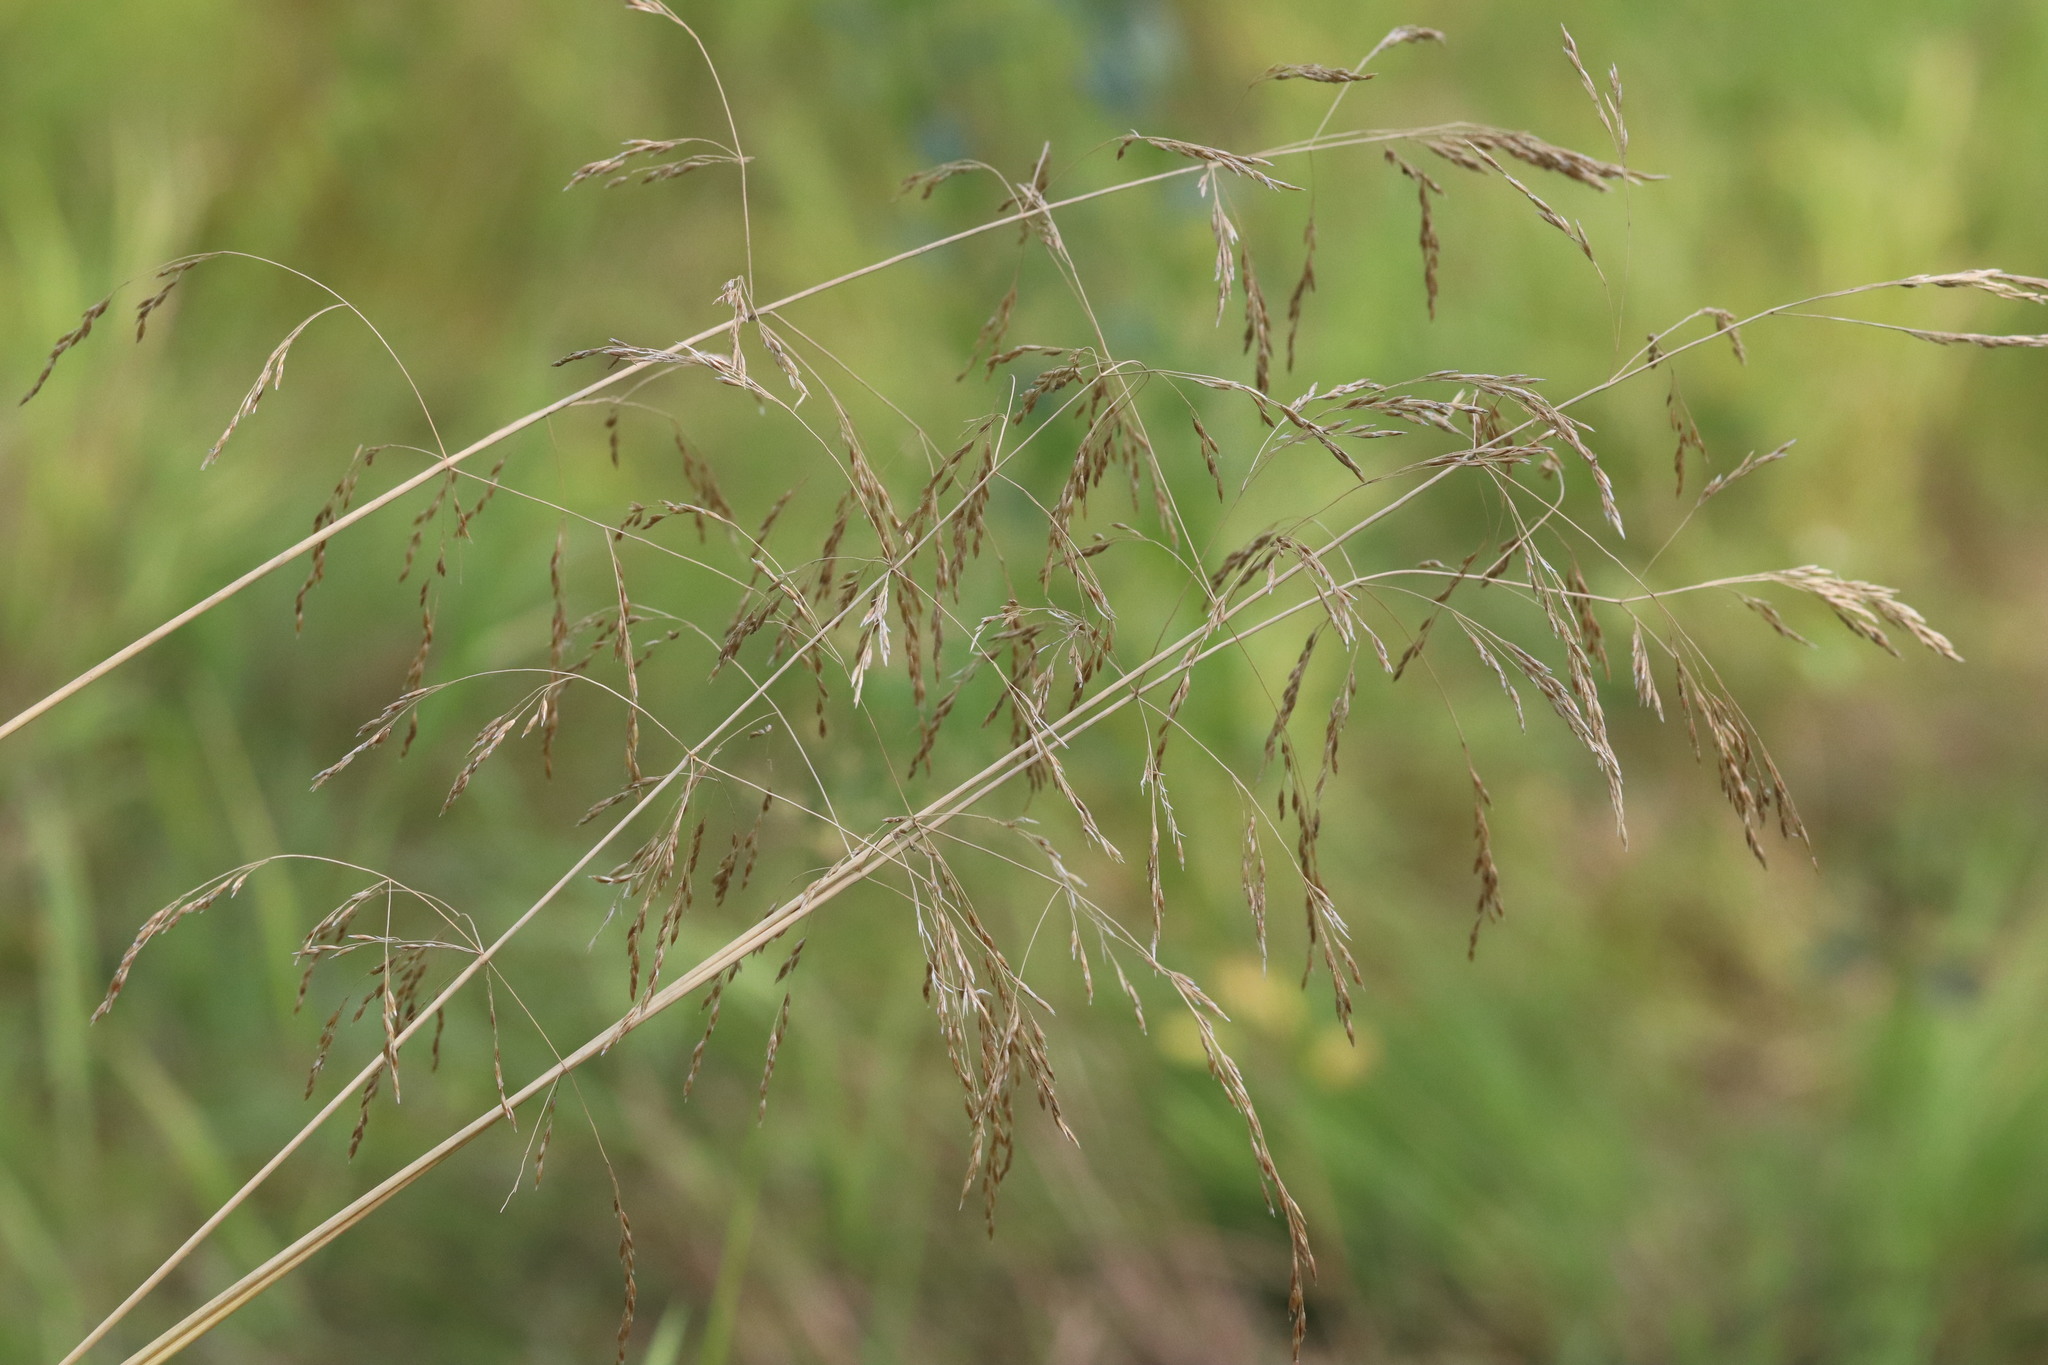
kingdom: Plantae
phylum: Tracheophyta
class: Liliopsida
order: Poales
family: Poaceae
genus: Deschampsia
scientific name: Deschampsia cespitosa
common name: Tufted hair-grass
